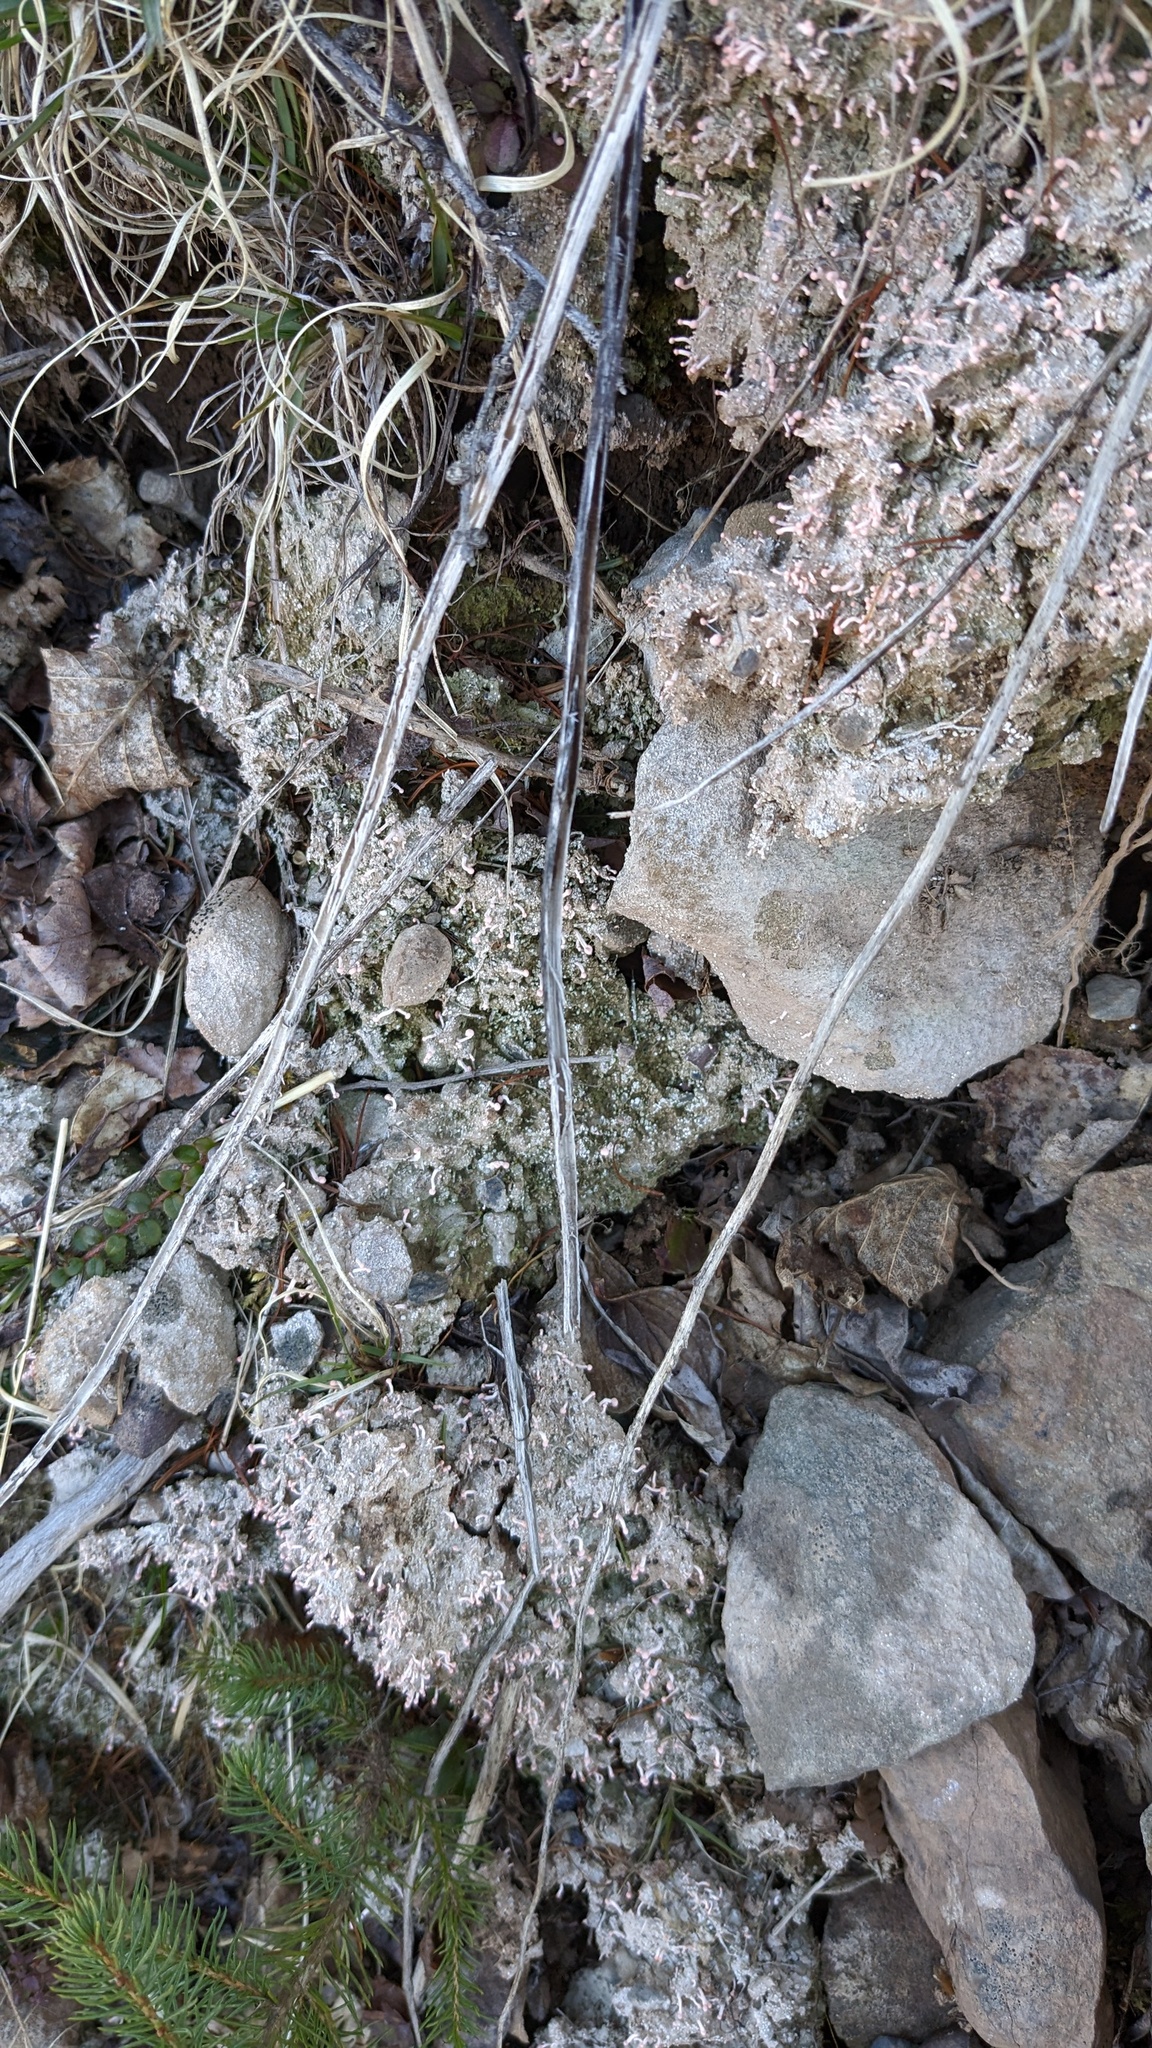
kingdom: Fungi
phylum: Ascomycota
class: Lecanoromycetes
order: Pertusariales
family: Icmadophilaceae
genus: Dibaeis
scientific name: Dibaeis baeomyces
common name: Pink earth lichen
